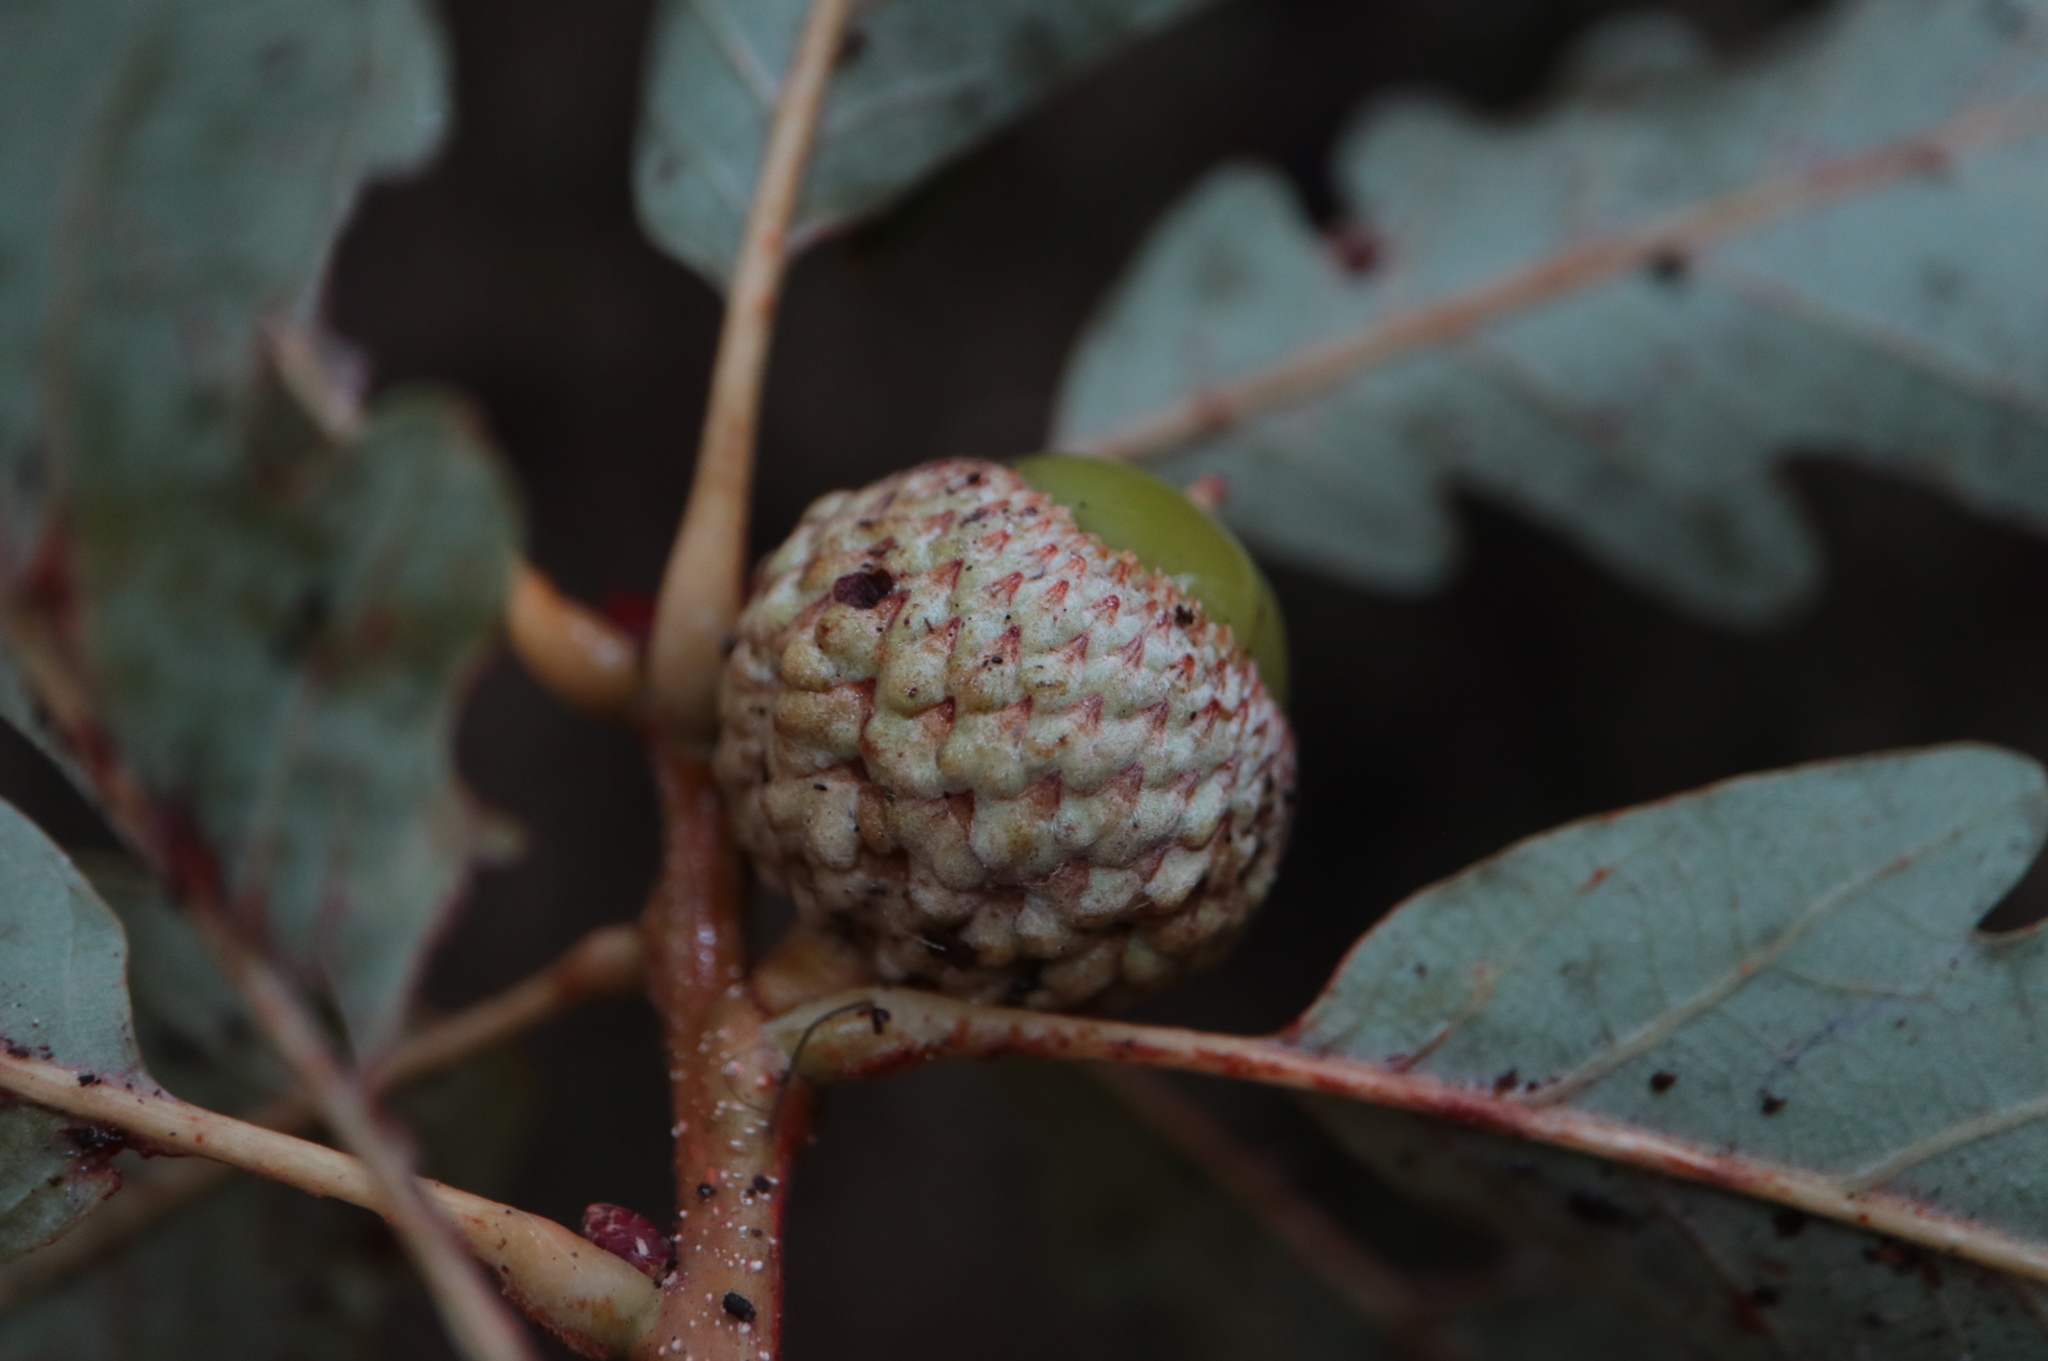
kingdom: Plantae
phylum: Tracheophyta
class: Magnoliopsida
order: Fagales
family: Fagaceae
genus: Quercus
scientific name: Quercus saulii
